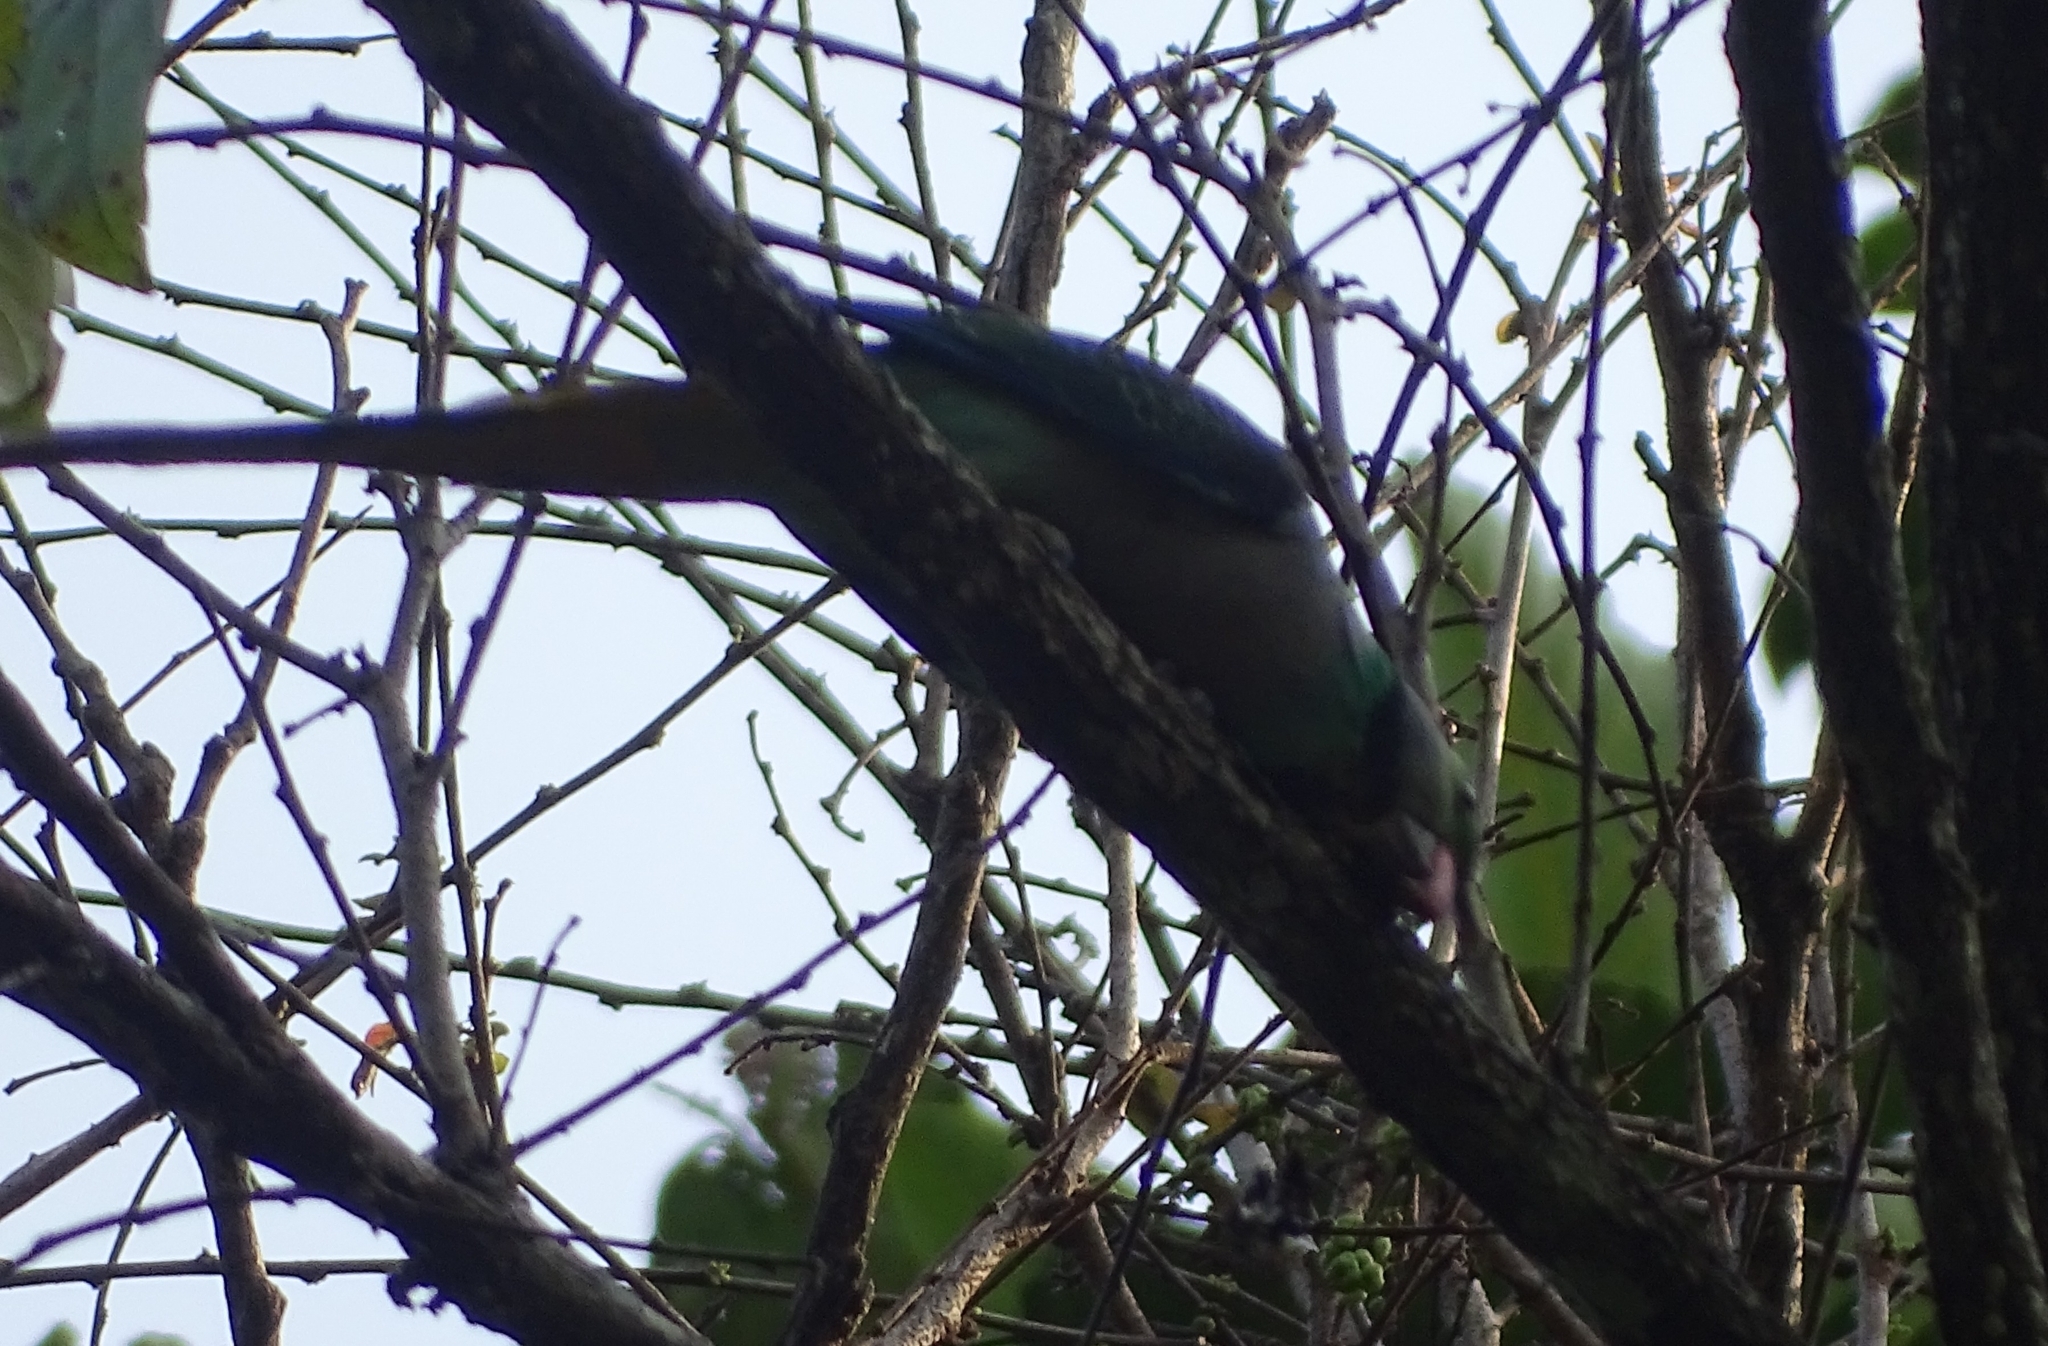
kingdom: Animalia
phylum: Chordata
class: Aves
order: Psittaciformes
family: Psittacidae
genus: Psittacula
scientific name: Psittacula columboides
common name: Blue-winged parakeet
